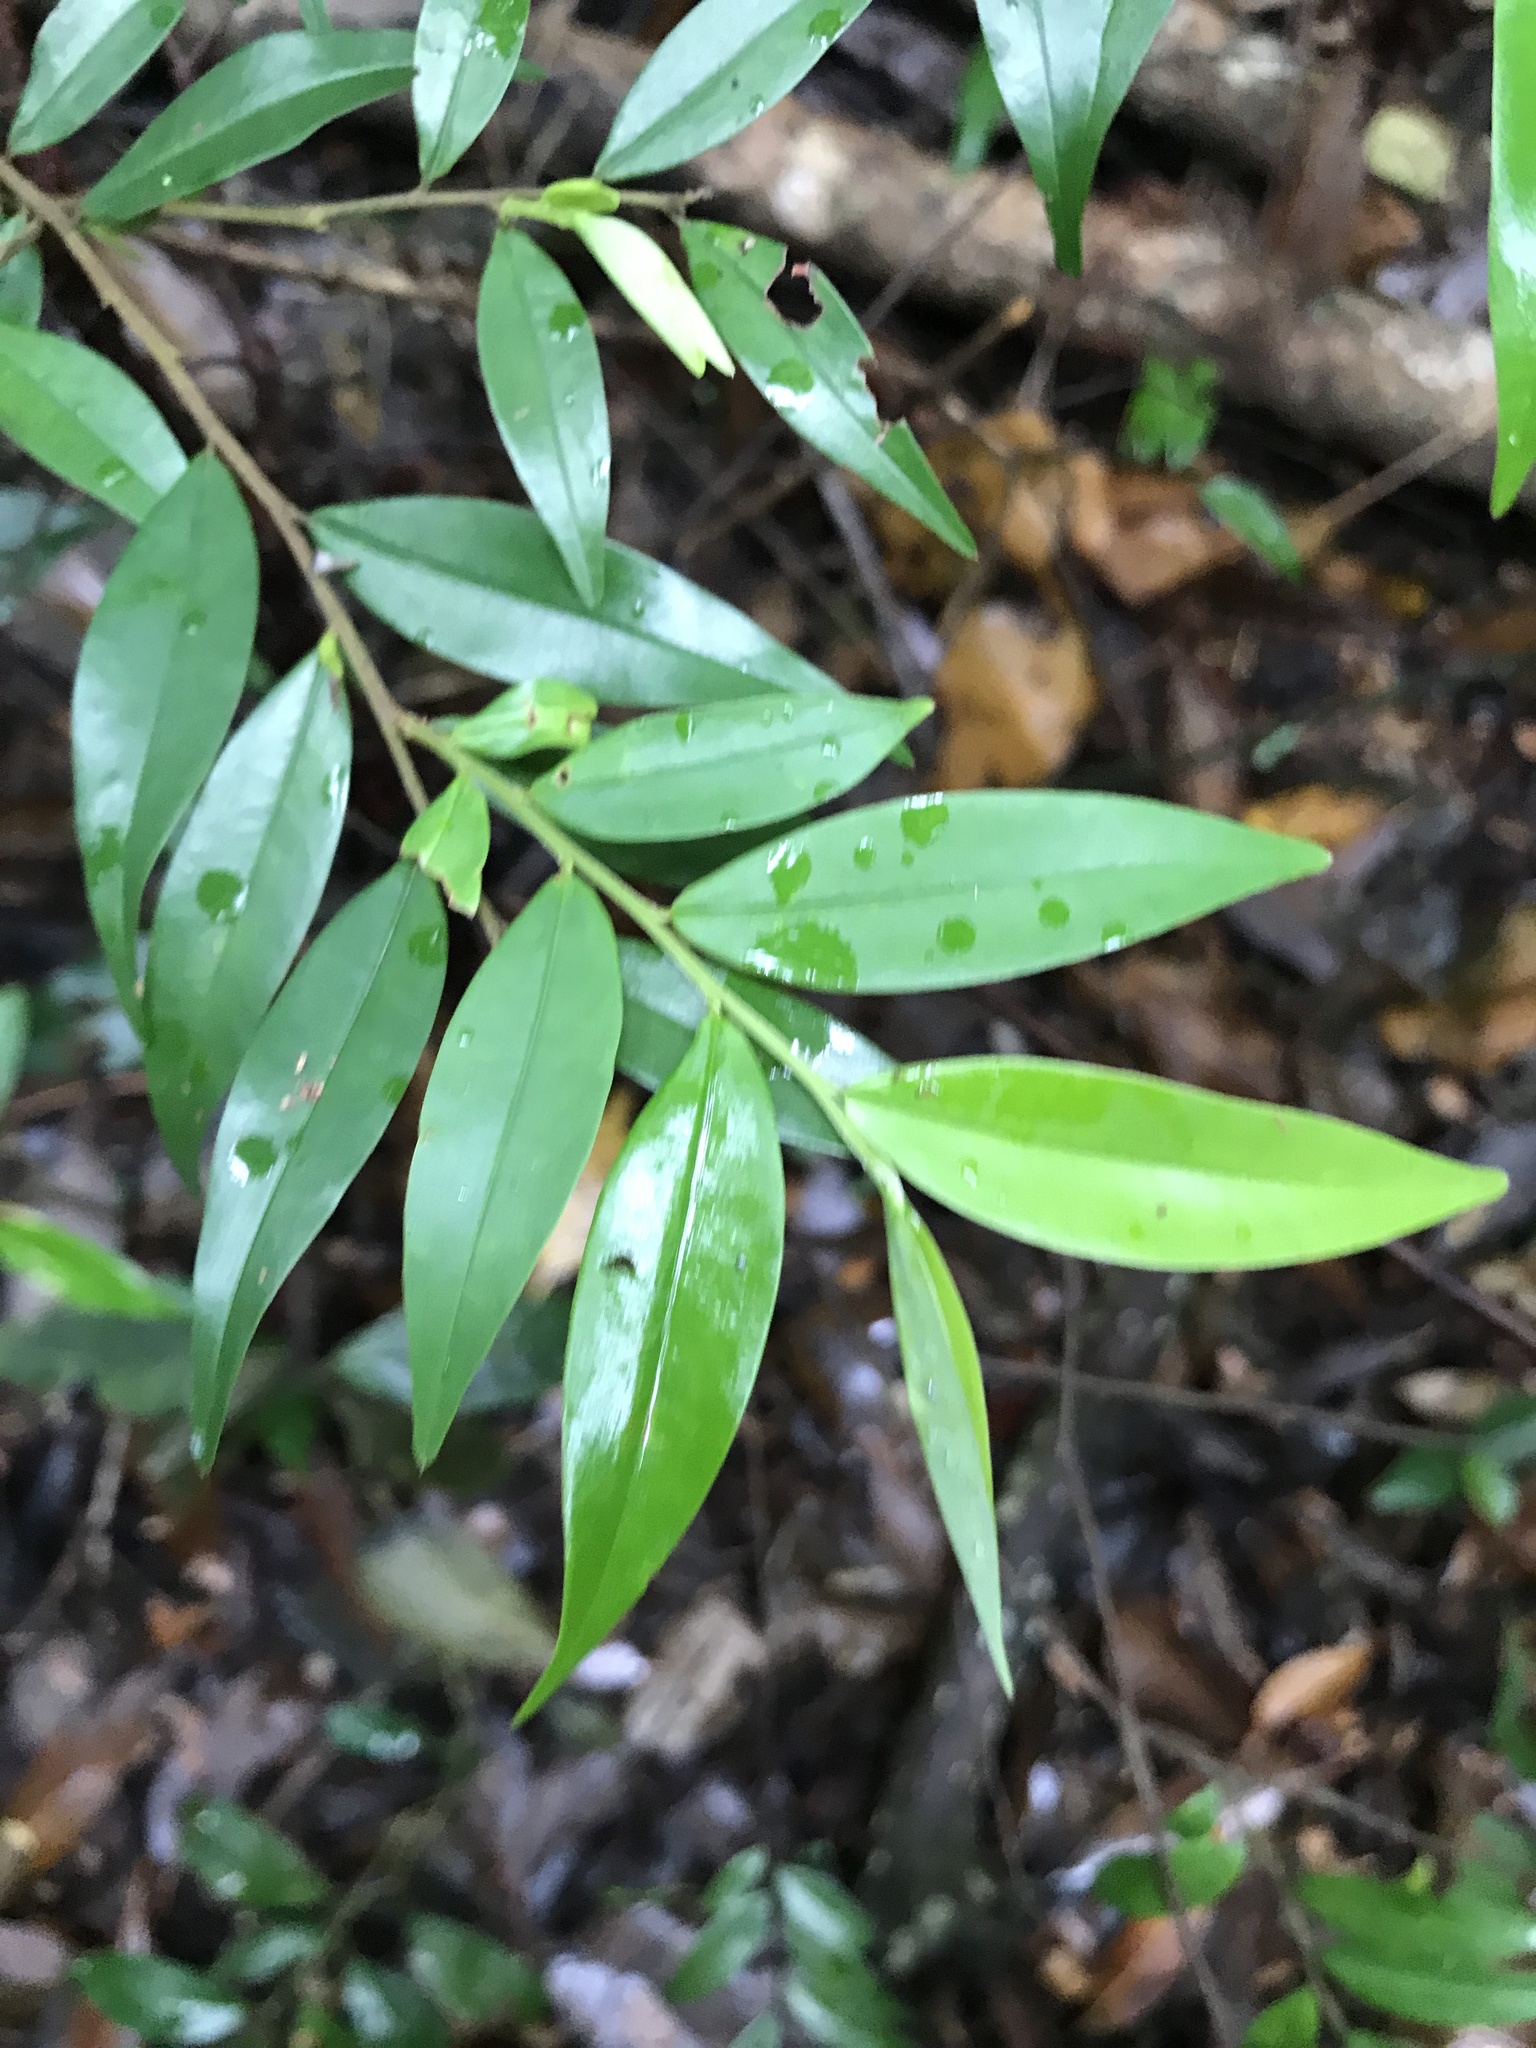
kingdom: Plantae
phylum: Tracheophyta
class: Magnoliopsida
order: Magnoliales
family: Annonaceae
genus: Xylopia
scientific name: Xylopia brasiliensis
